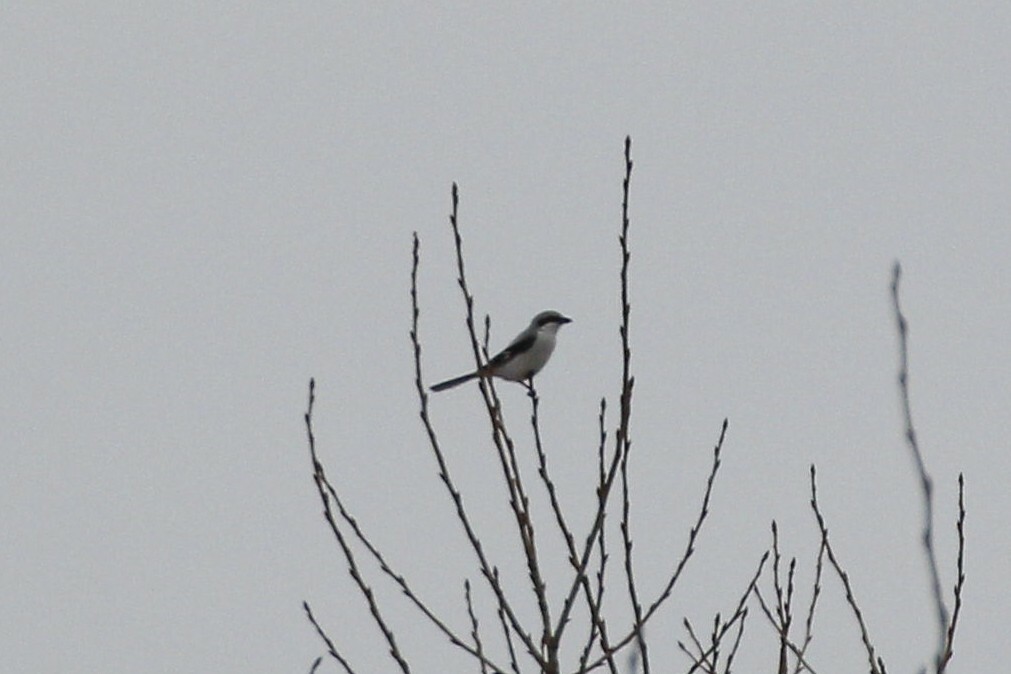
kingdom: Animalia
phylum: Chordata
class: Aves
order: Passeriformes
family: Laniidae
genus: Lanius
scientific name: Lanius excubitor
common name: Great grey shrike
